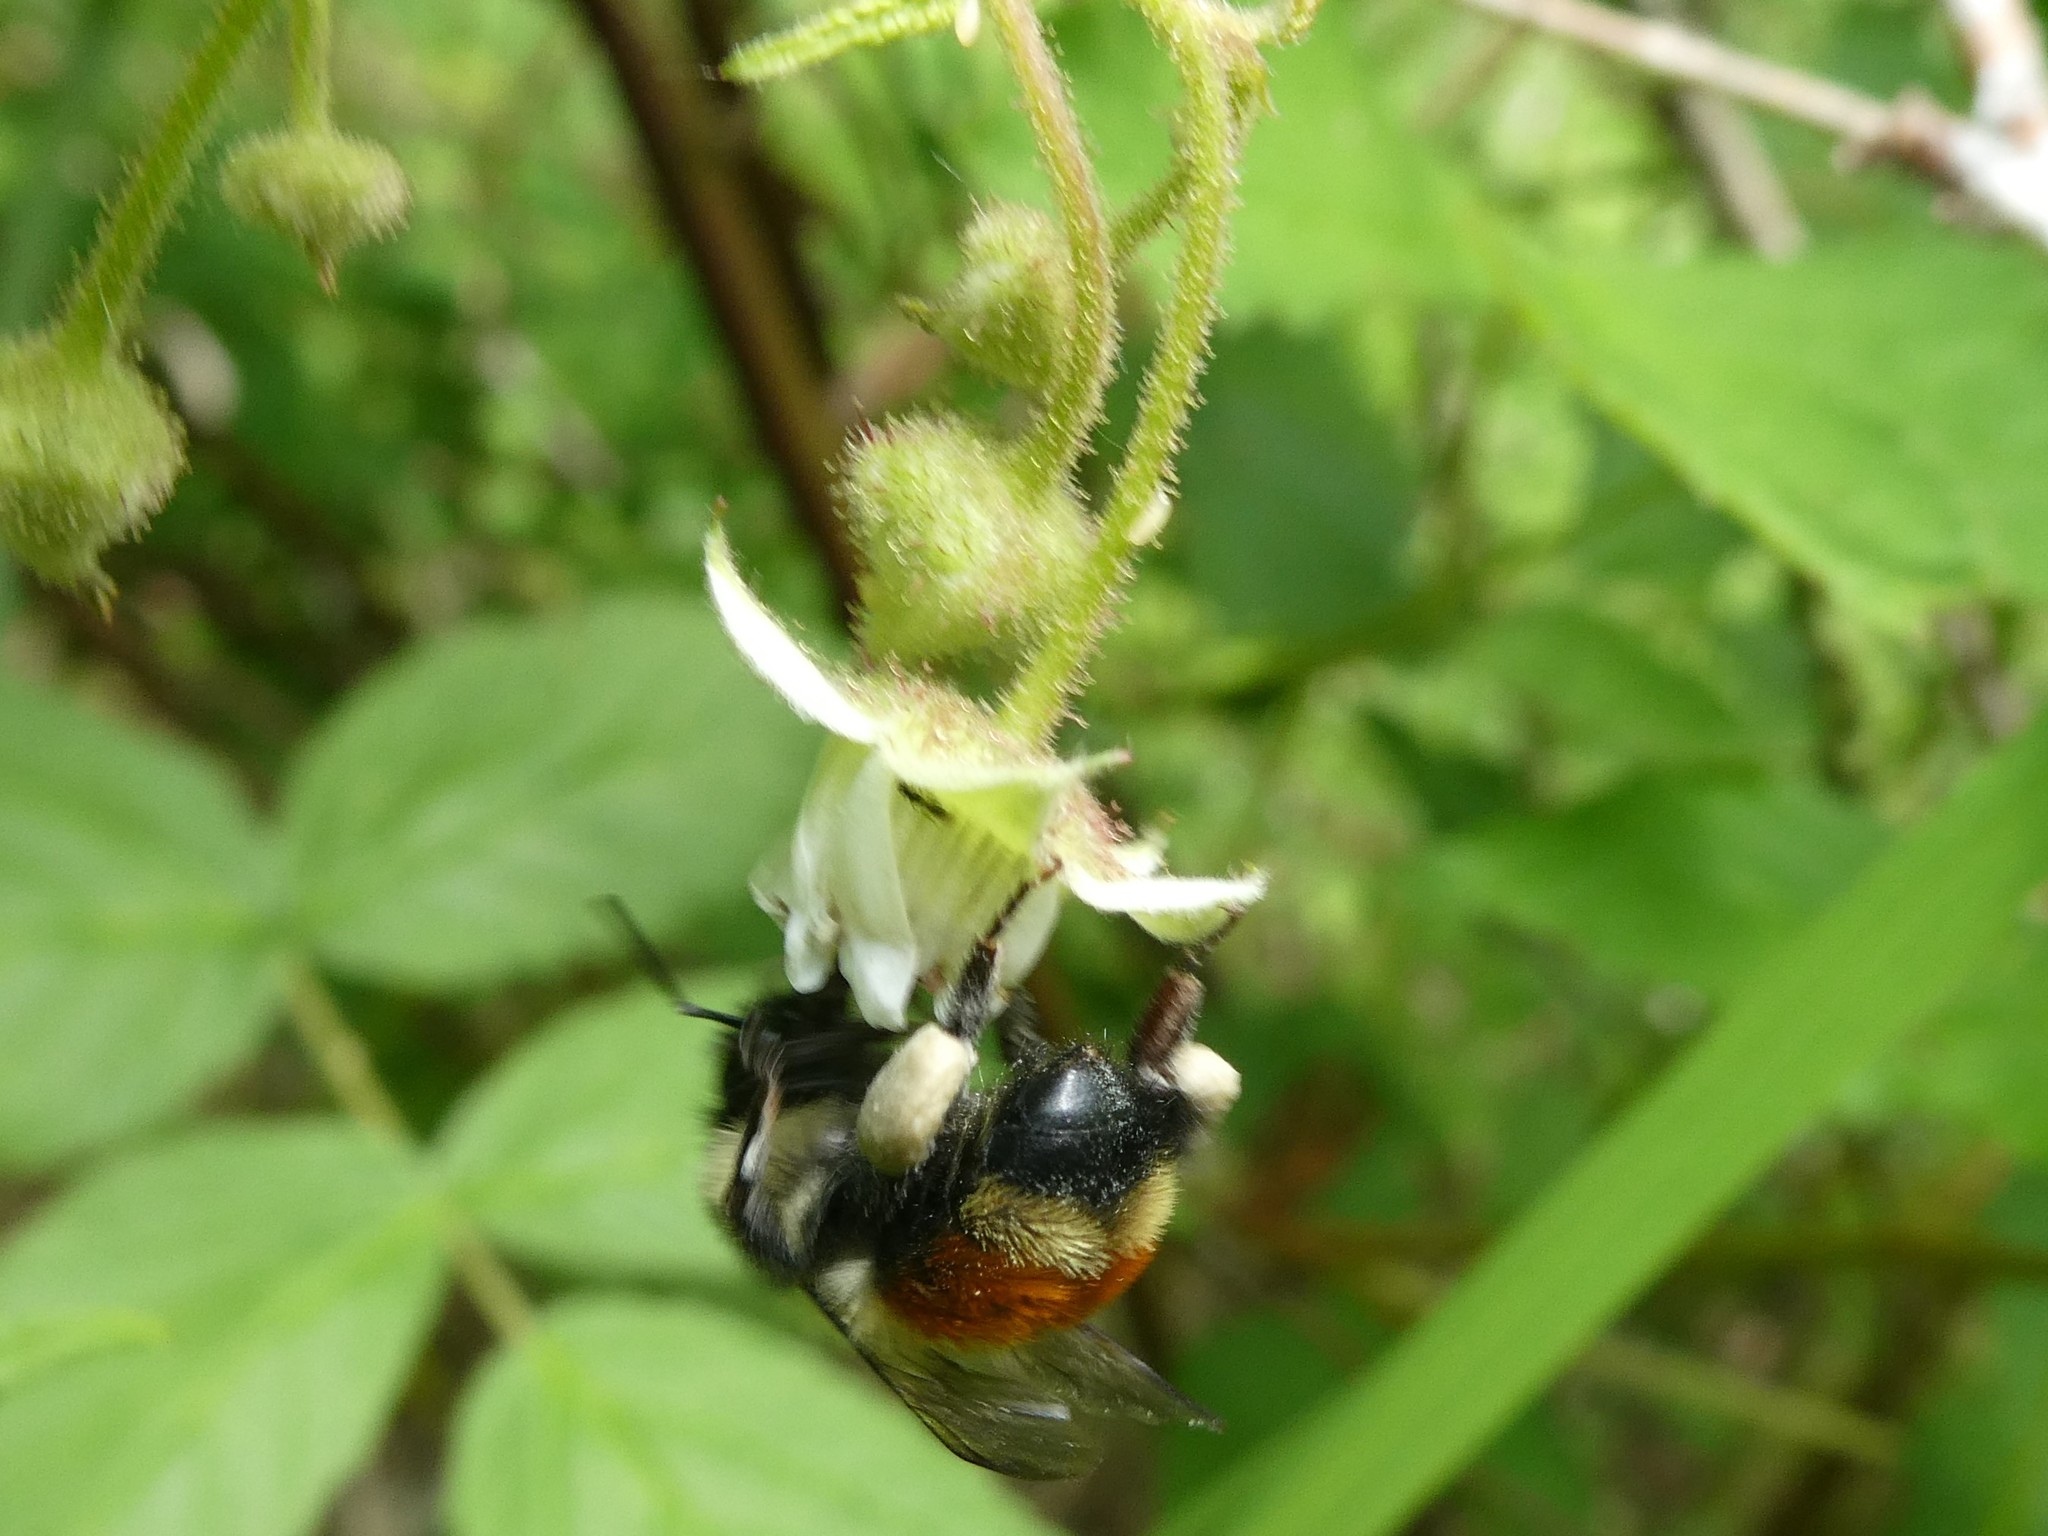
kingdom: Animalia
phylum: Arthropoda
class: Insecta
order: Hymenoptera
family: Apidae
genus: Bombus
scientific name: Bombus ternarius
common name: Tri-colored bumble bee
